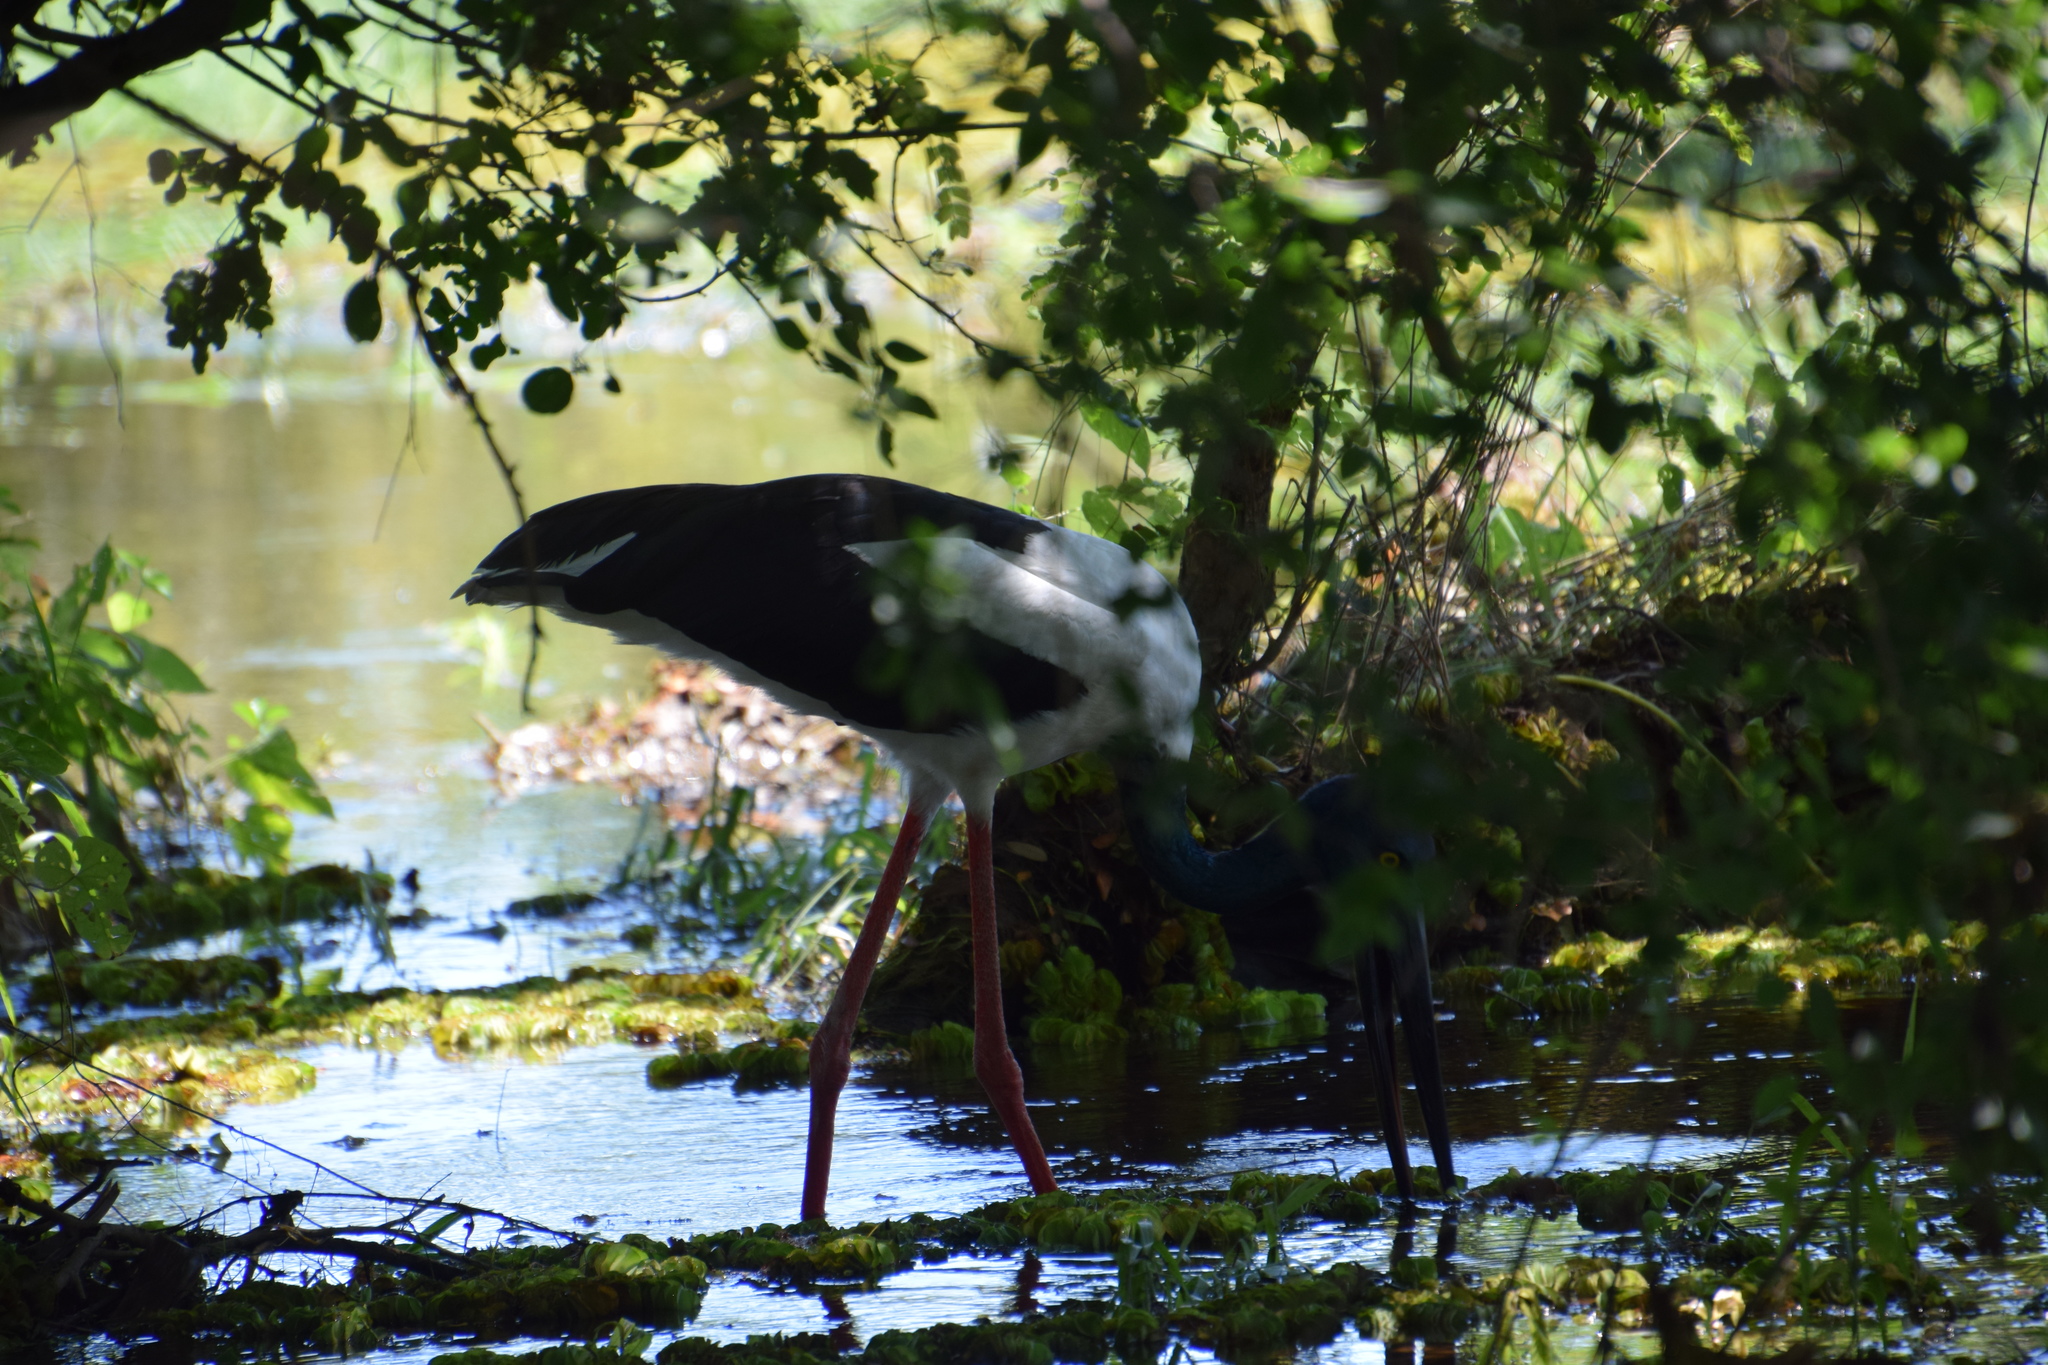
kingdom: Animalia
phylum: Chordata
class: Aves
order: Ciconiiformes
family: Ciconiidae
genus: Ephippiorhynchus
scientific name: Ephippiorhynchus asiaticus
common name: Black-necked stork
